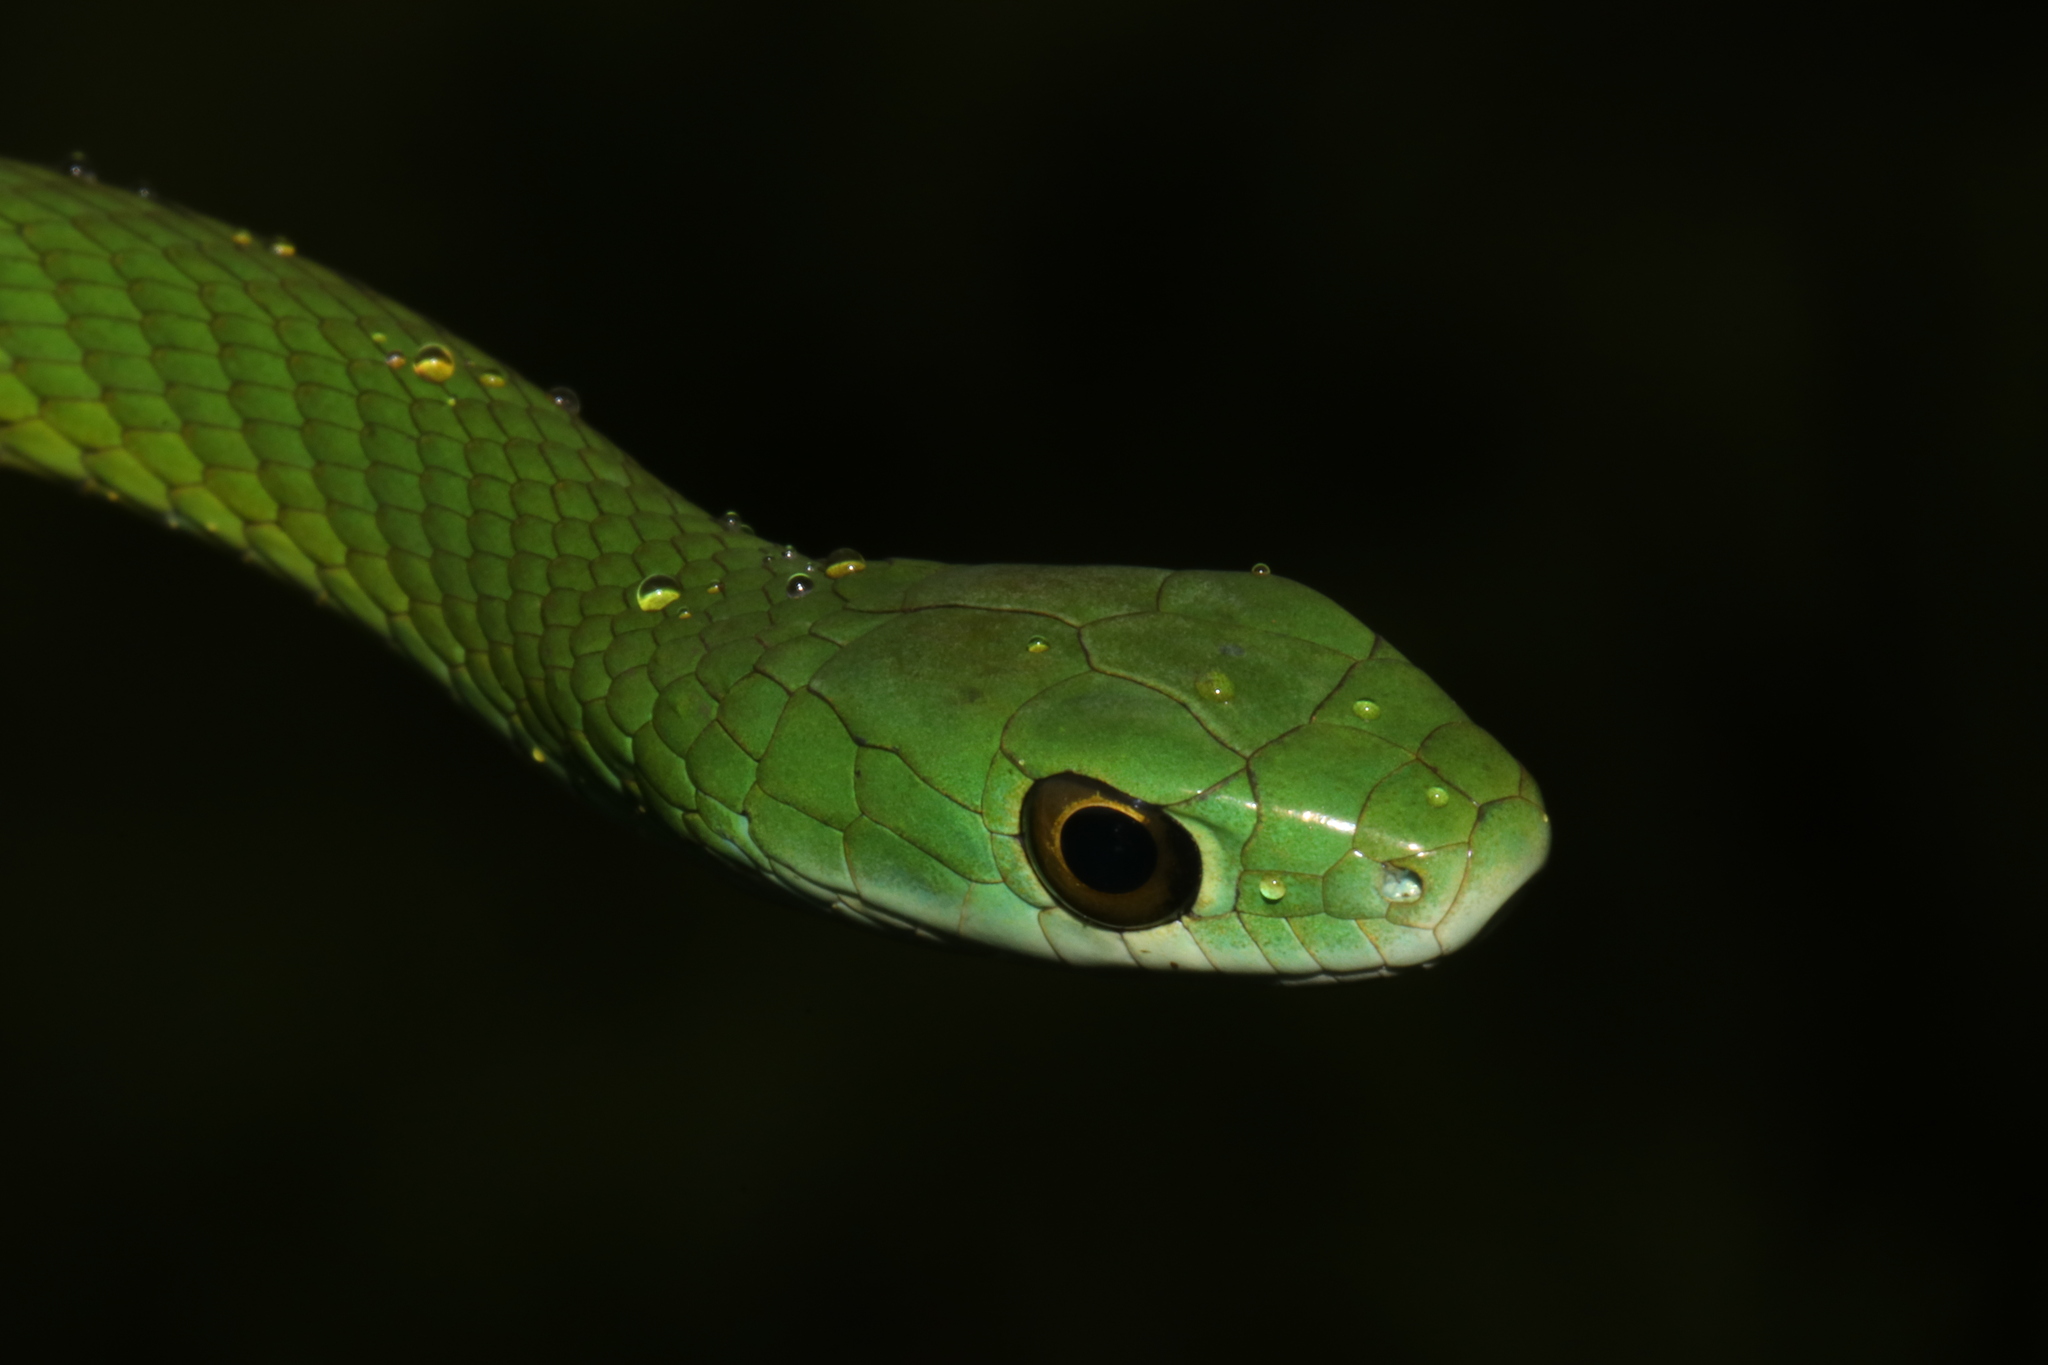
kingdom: Animalia
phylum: Chordata
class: Squamata
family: Colubridae
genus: Philothamnus
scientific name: Philothamnus angolensis
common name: Angola green snake
